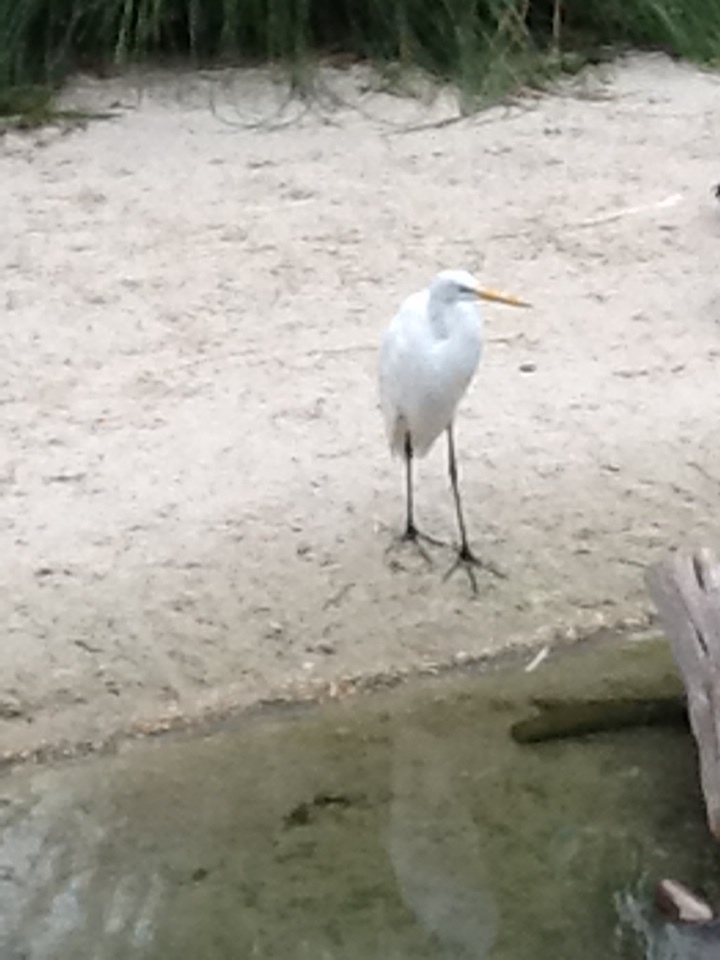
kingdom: Animalia
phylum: Chordata
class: Aves
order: Pelecaniformes
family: Ardeidae
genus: Ardea
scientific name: Ardea alba
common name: Great egret
